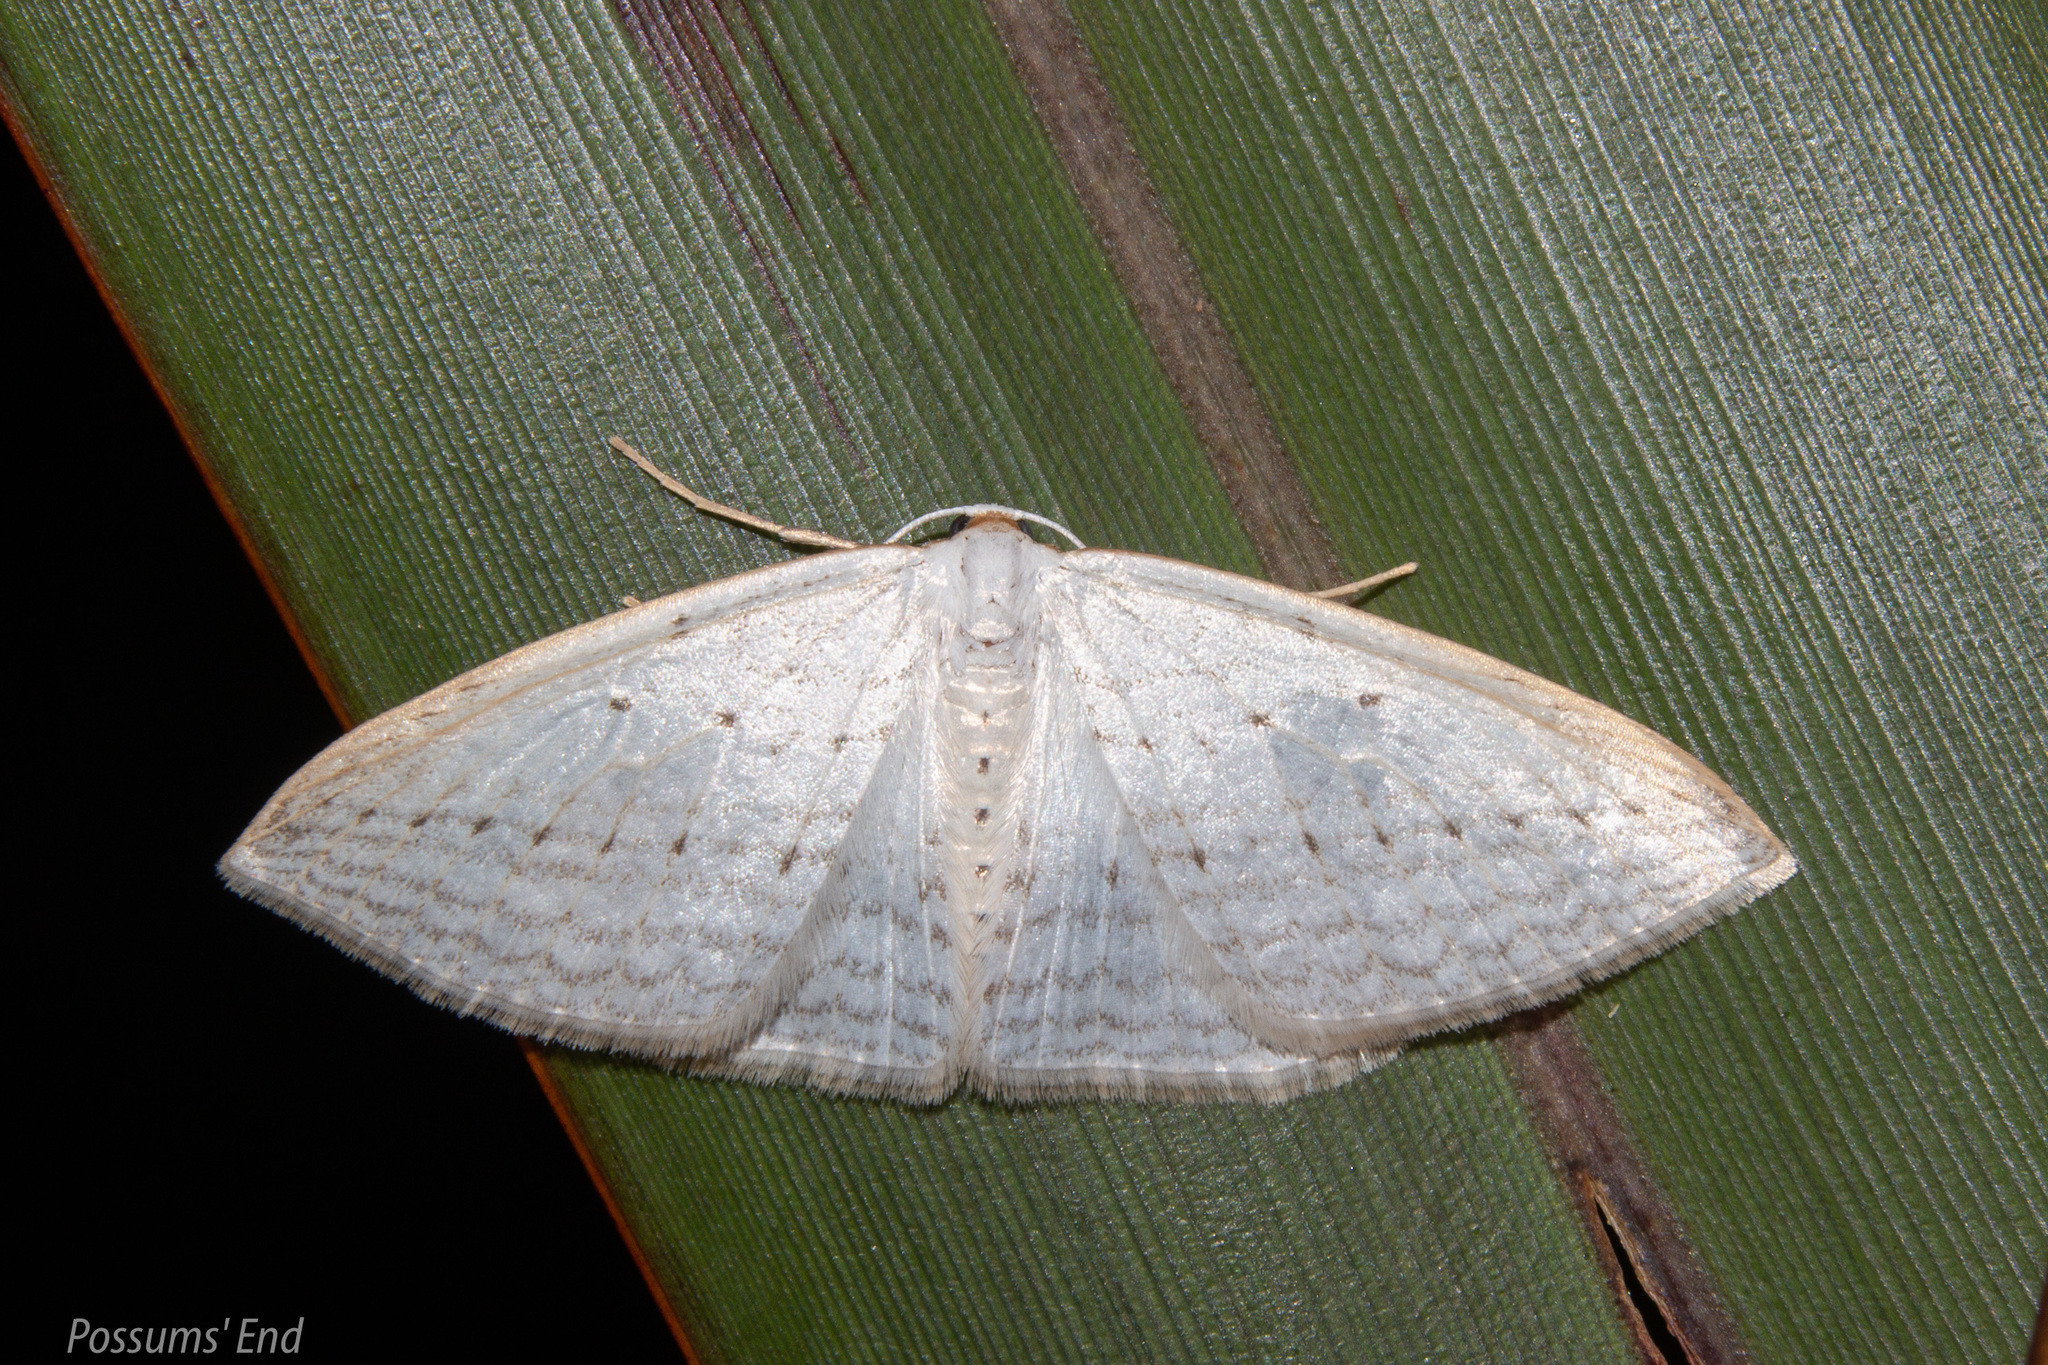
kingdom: Animalia
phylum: Arthropoda
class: Insecta
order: Lepidoptera
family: Geometridae
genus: Orthoclydon
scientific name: Orthoclydon praefectata
